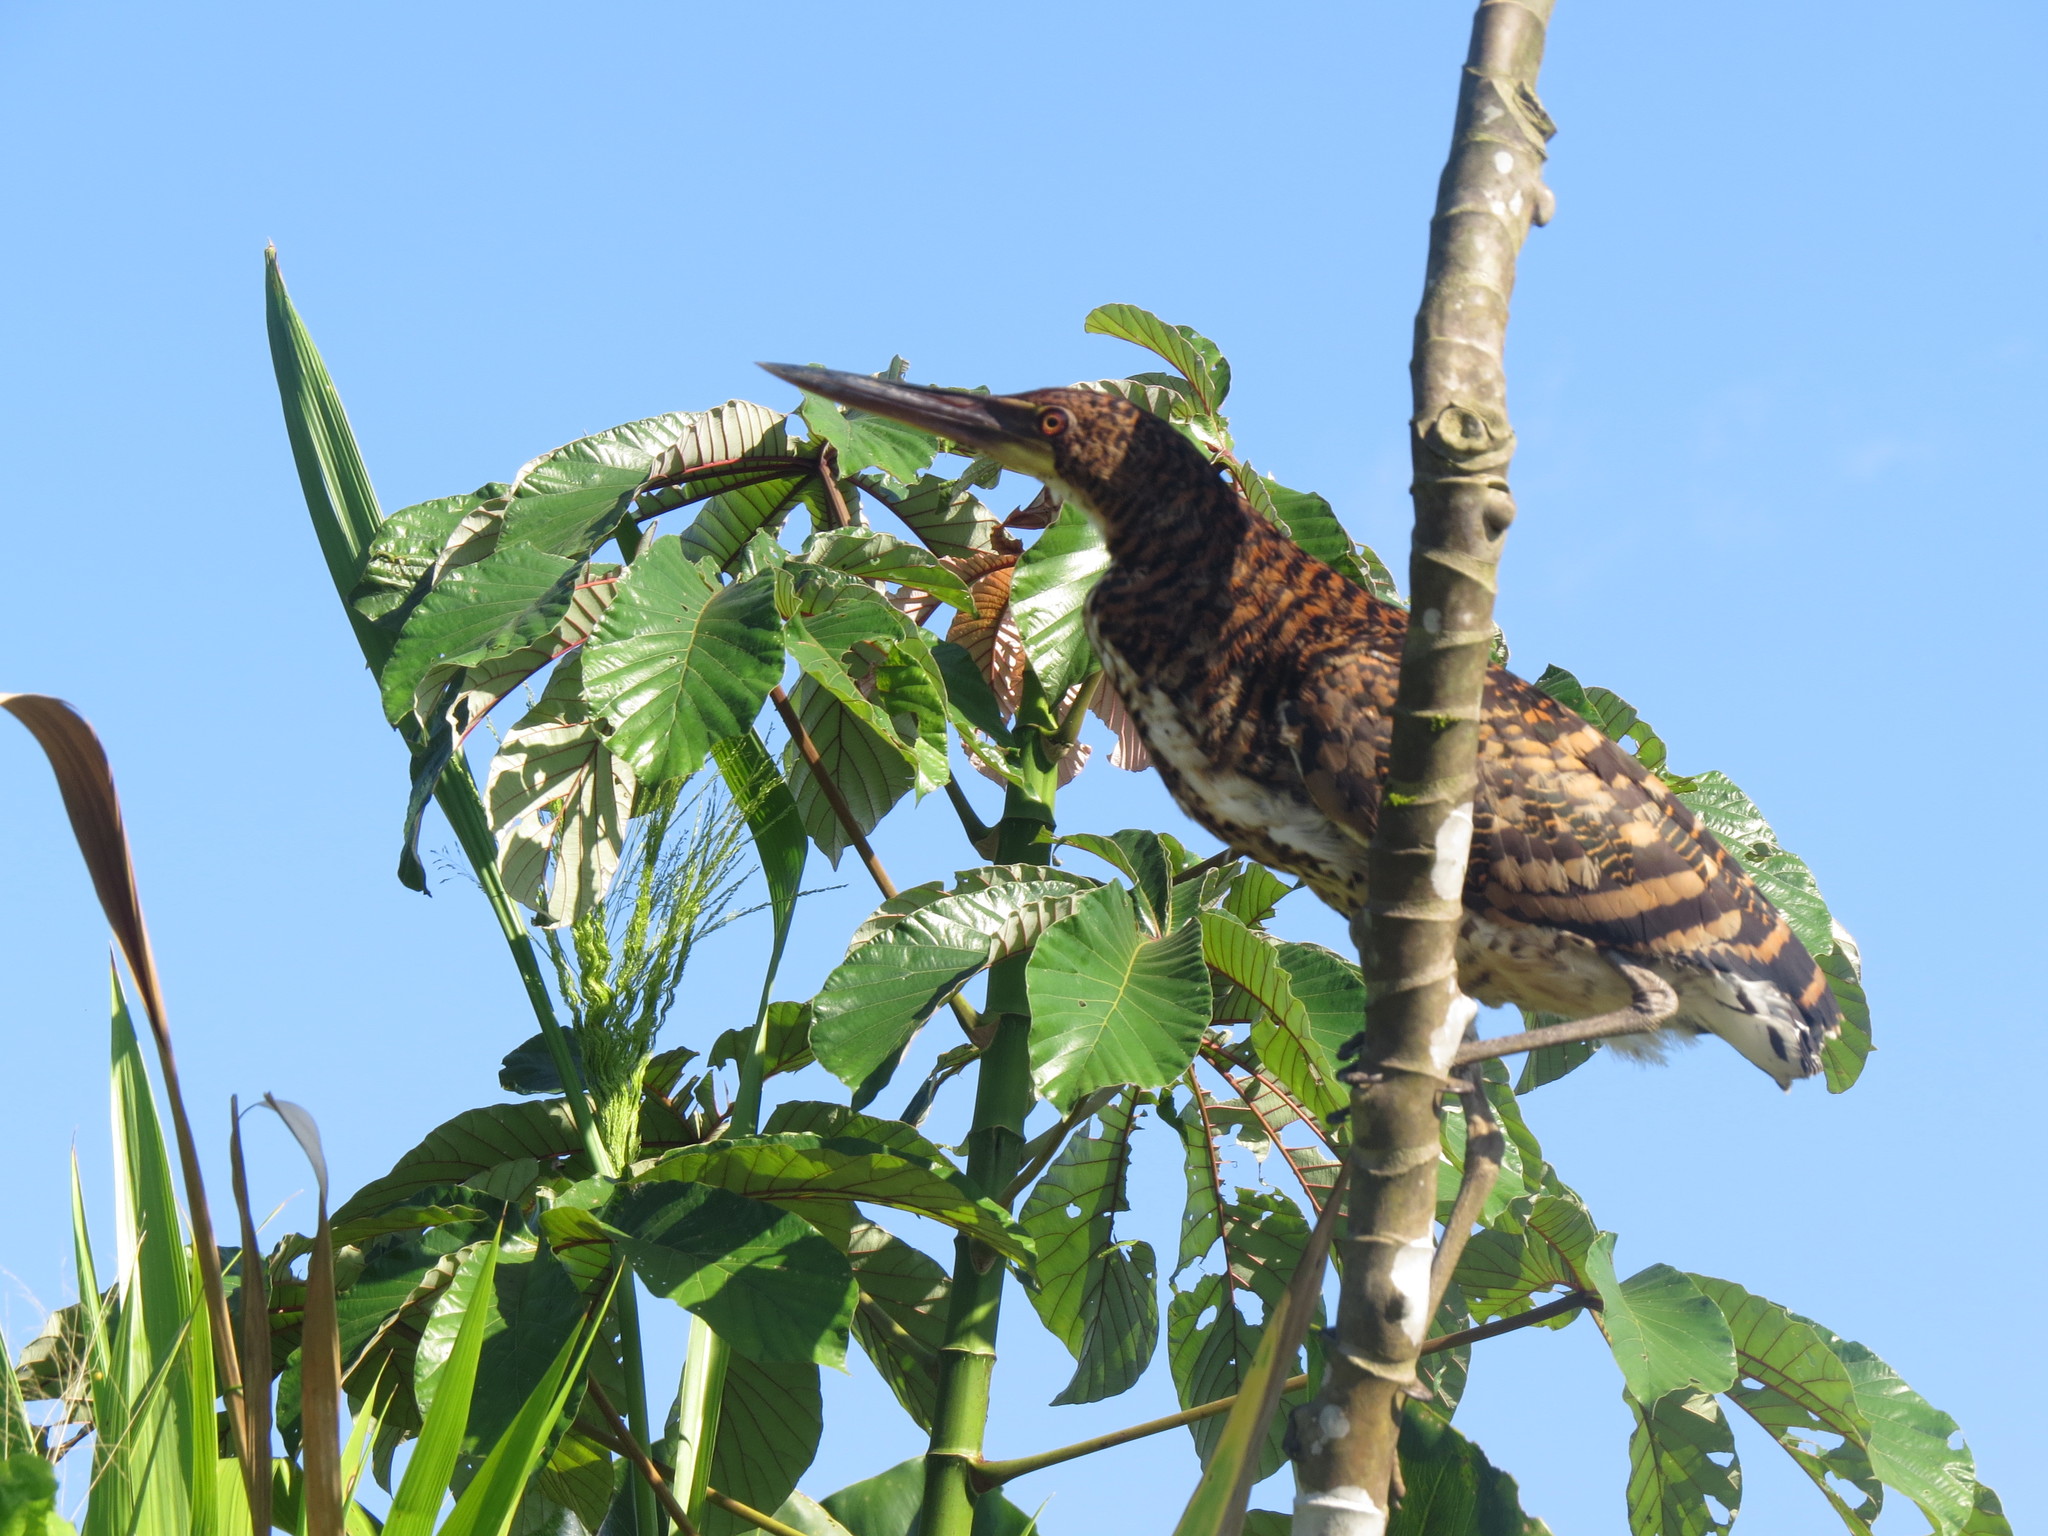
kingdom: Animalia
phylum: Chordata
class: Aves
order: Pelecaniformes
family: Ardeidae
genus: Tigrisoma
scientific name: Tigrisoma lineatum
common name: Rufescent tiger-heron
